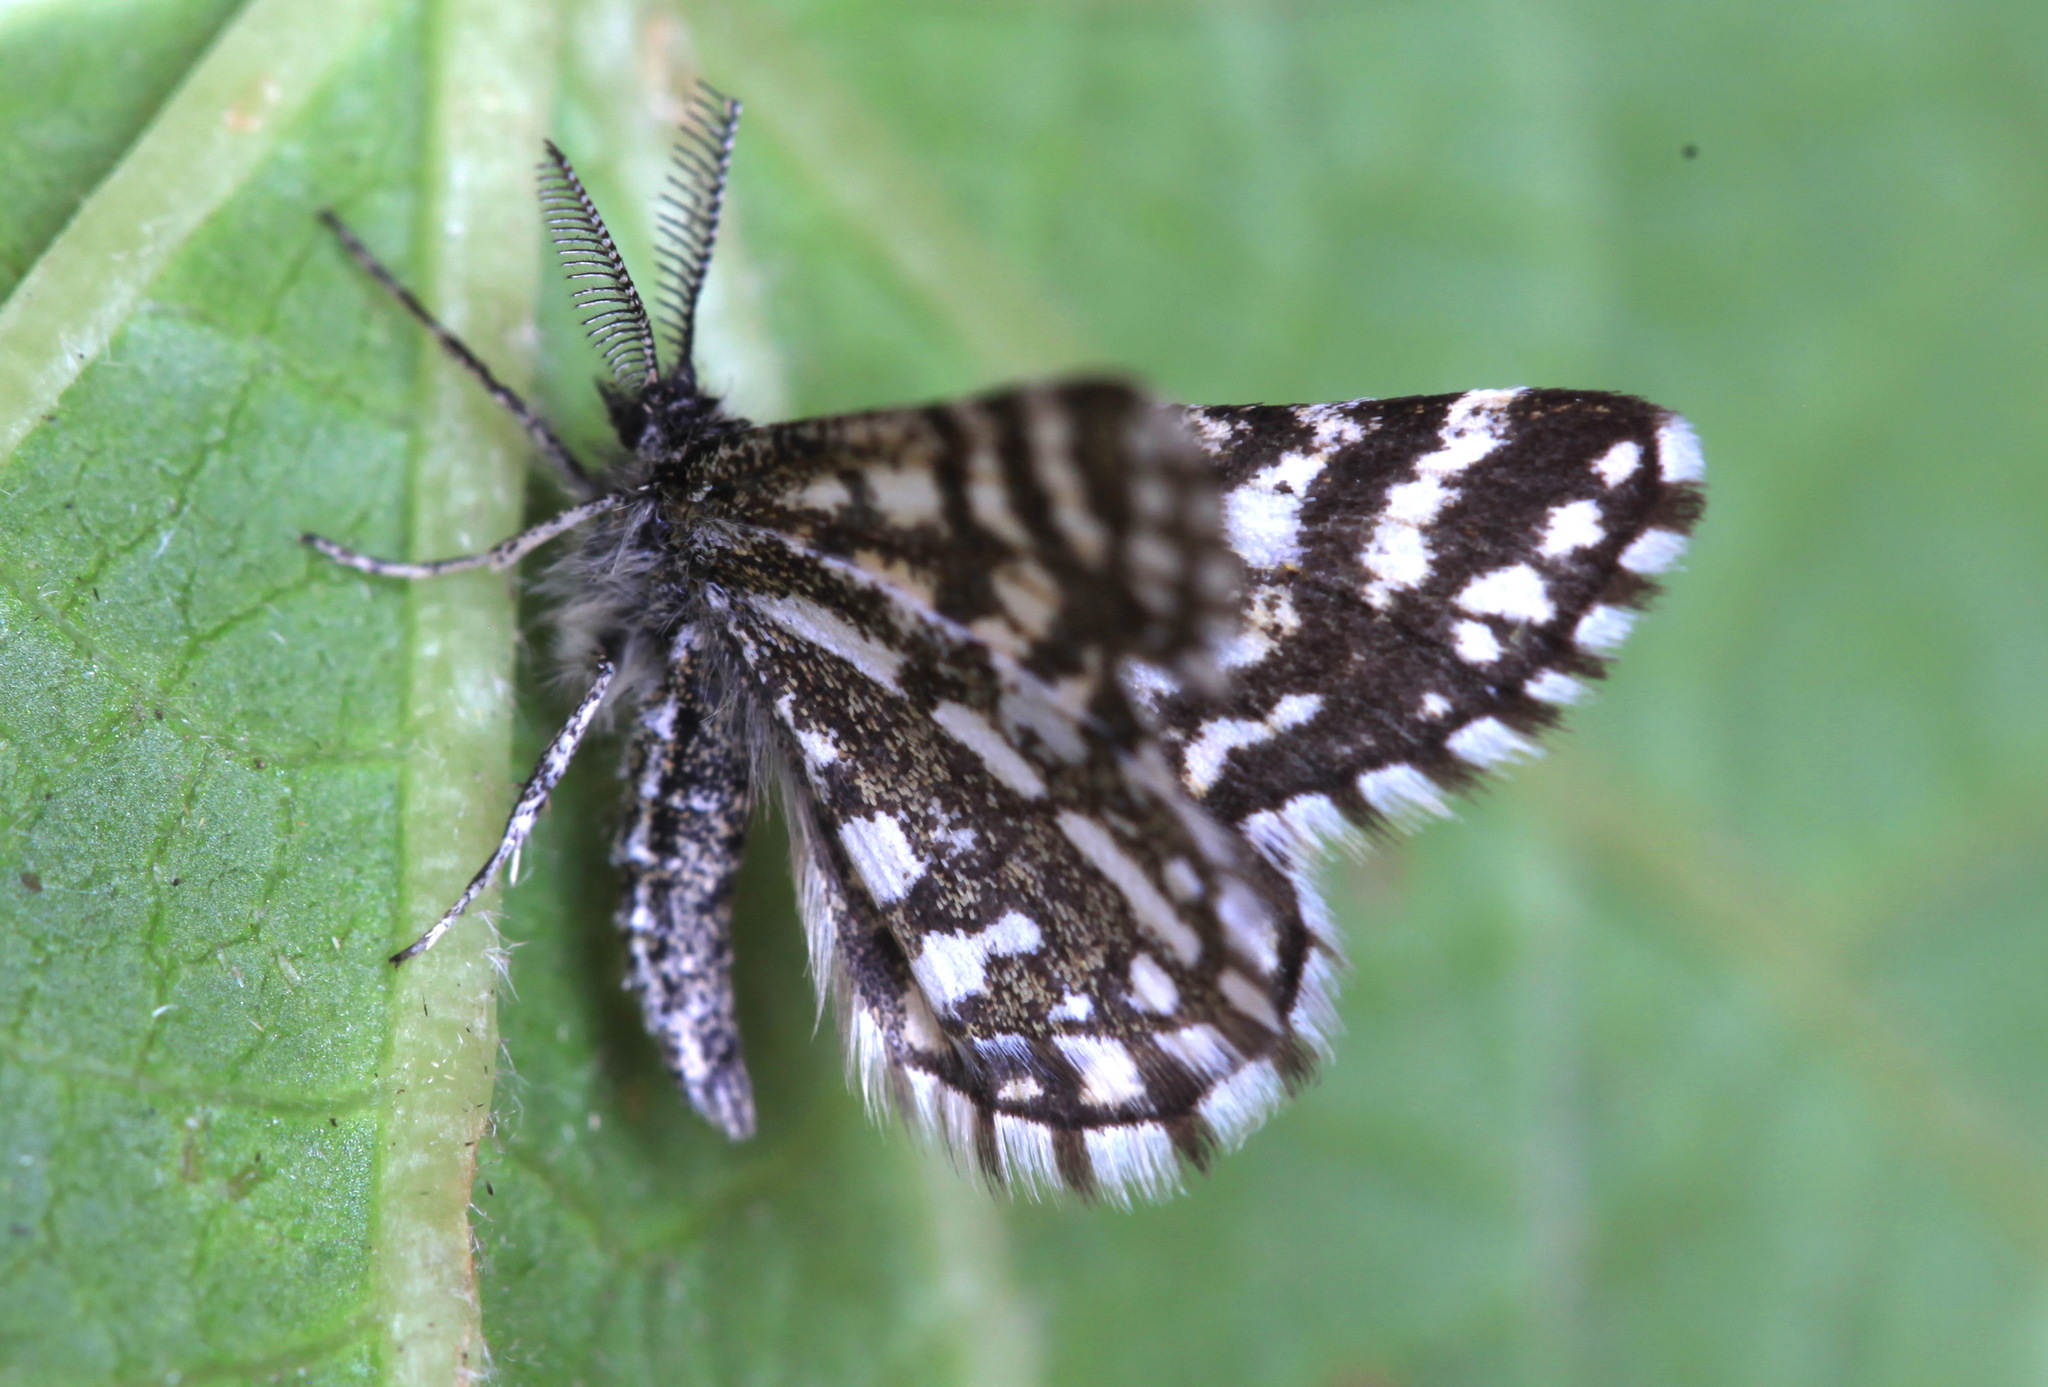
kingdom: Animalia
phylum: Arthropoda
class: Insecta
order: Lepidoptera
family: Geometridae
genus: Narraga
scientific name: Narraga tessularia
